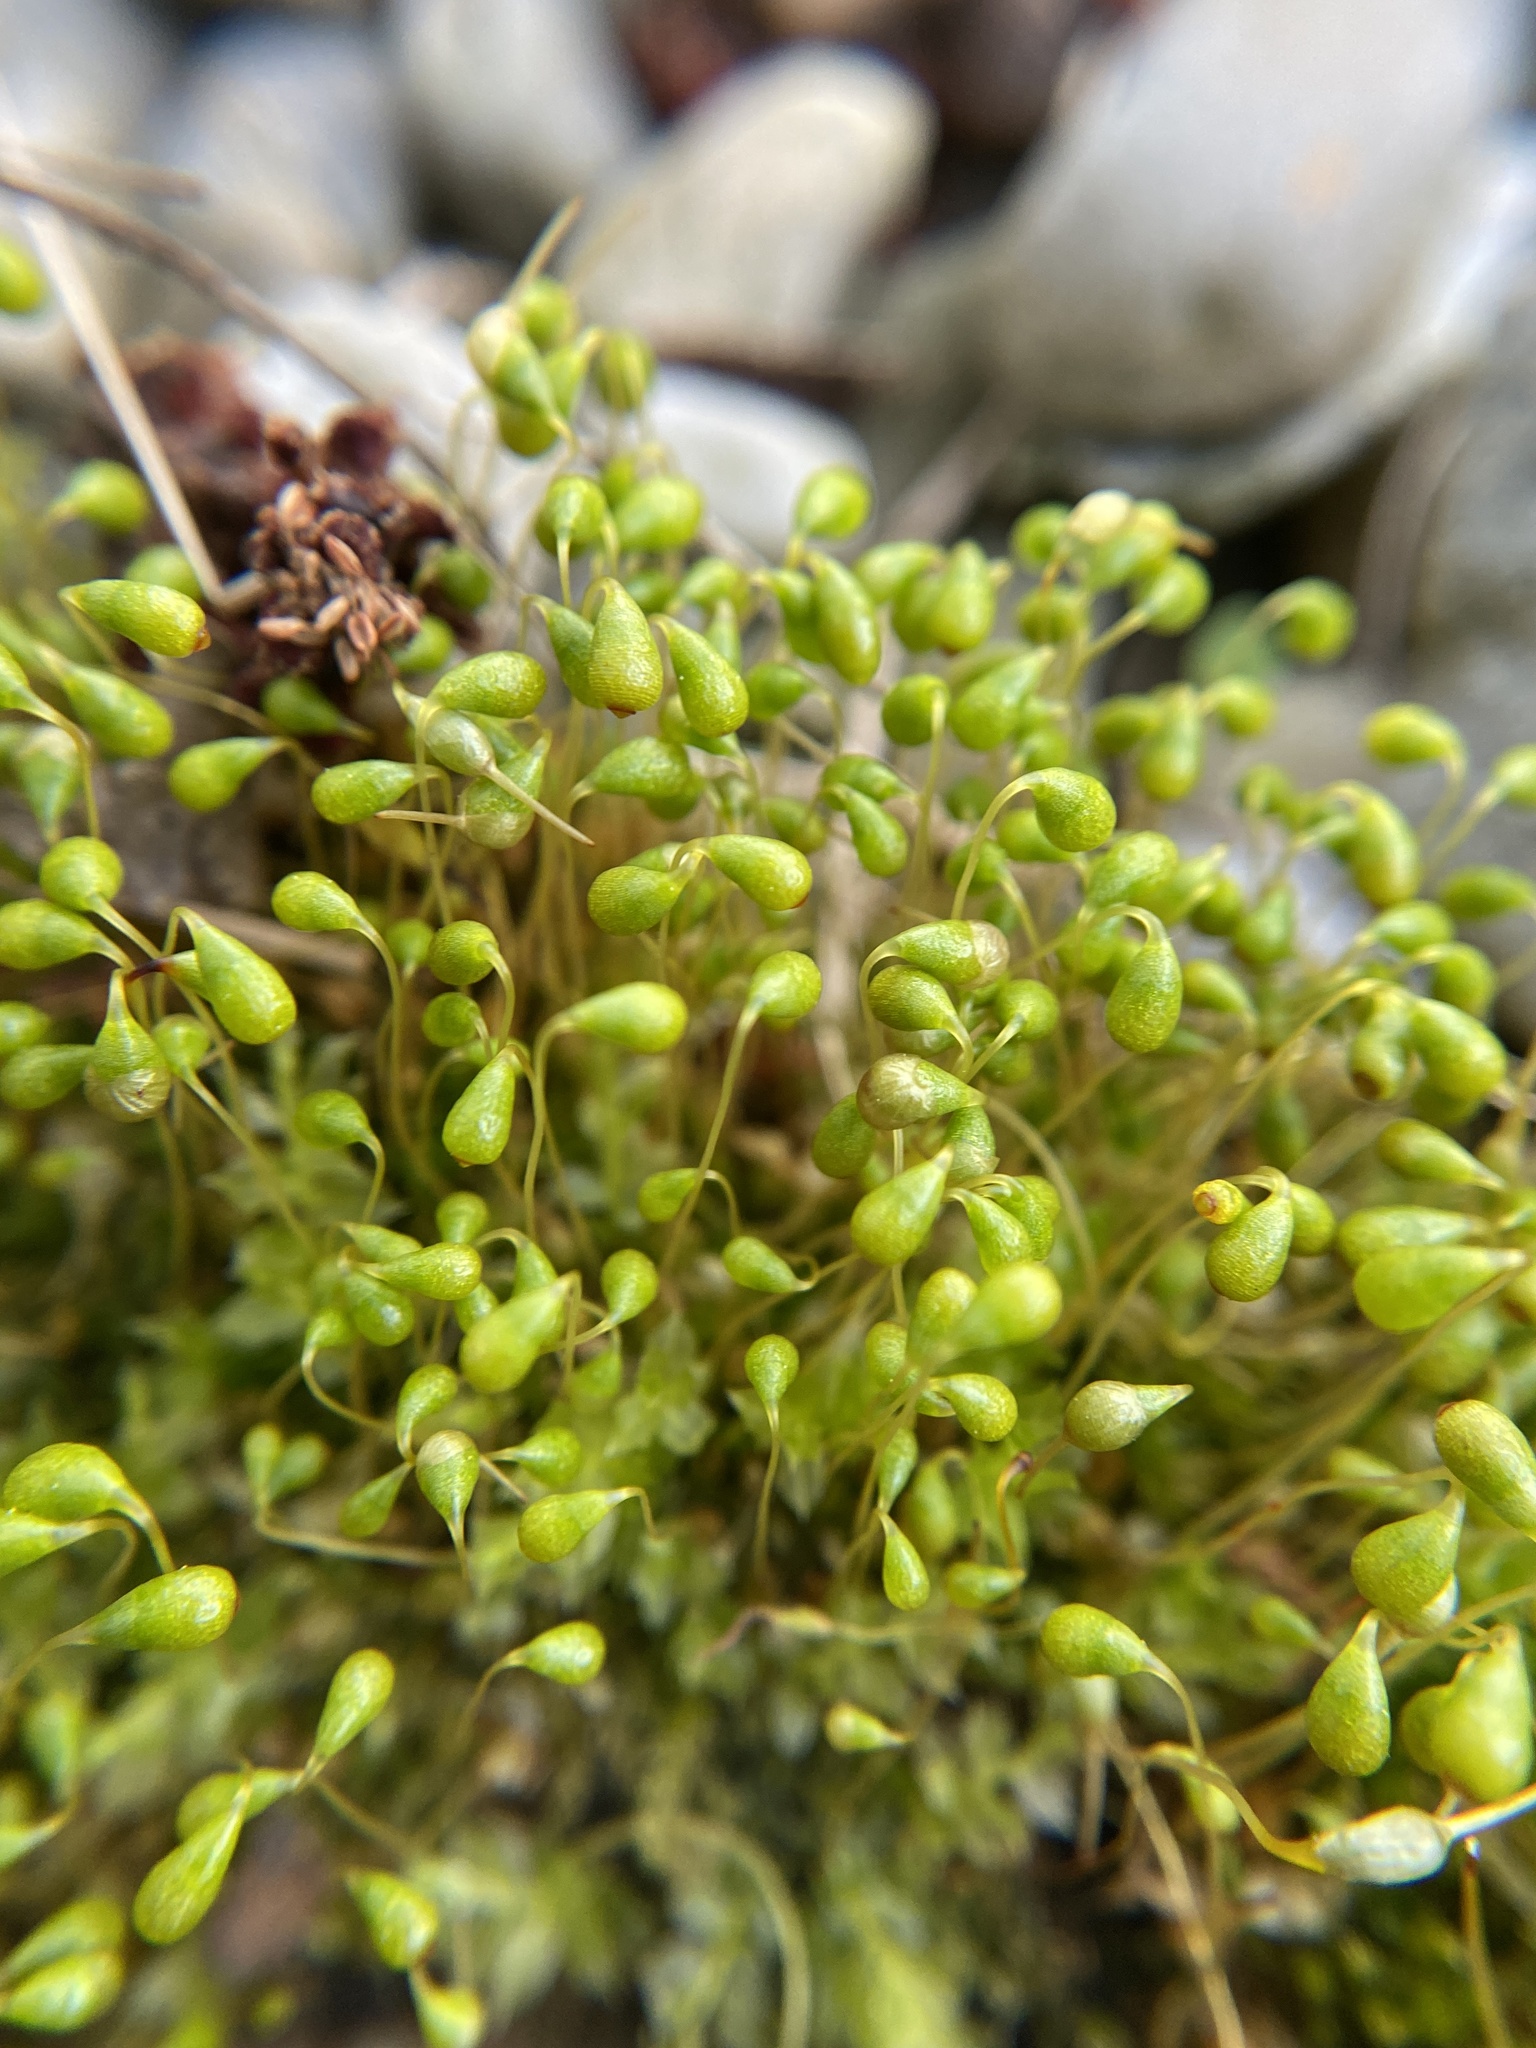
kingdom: Plantae
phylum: Bryophyta
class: Bryopsida
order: Funariales
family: Funariaceae
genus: Funaria
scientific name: Funaria hygrometrica
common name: Common cord moss
